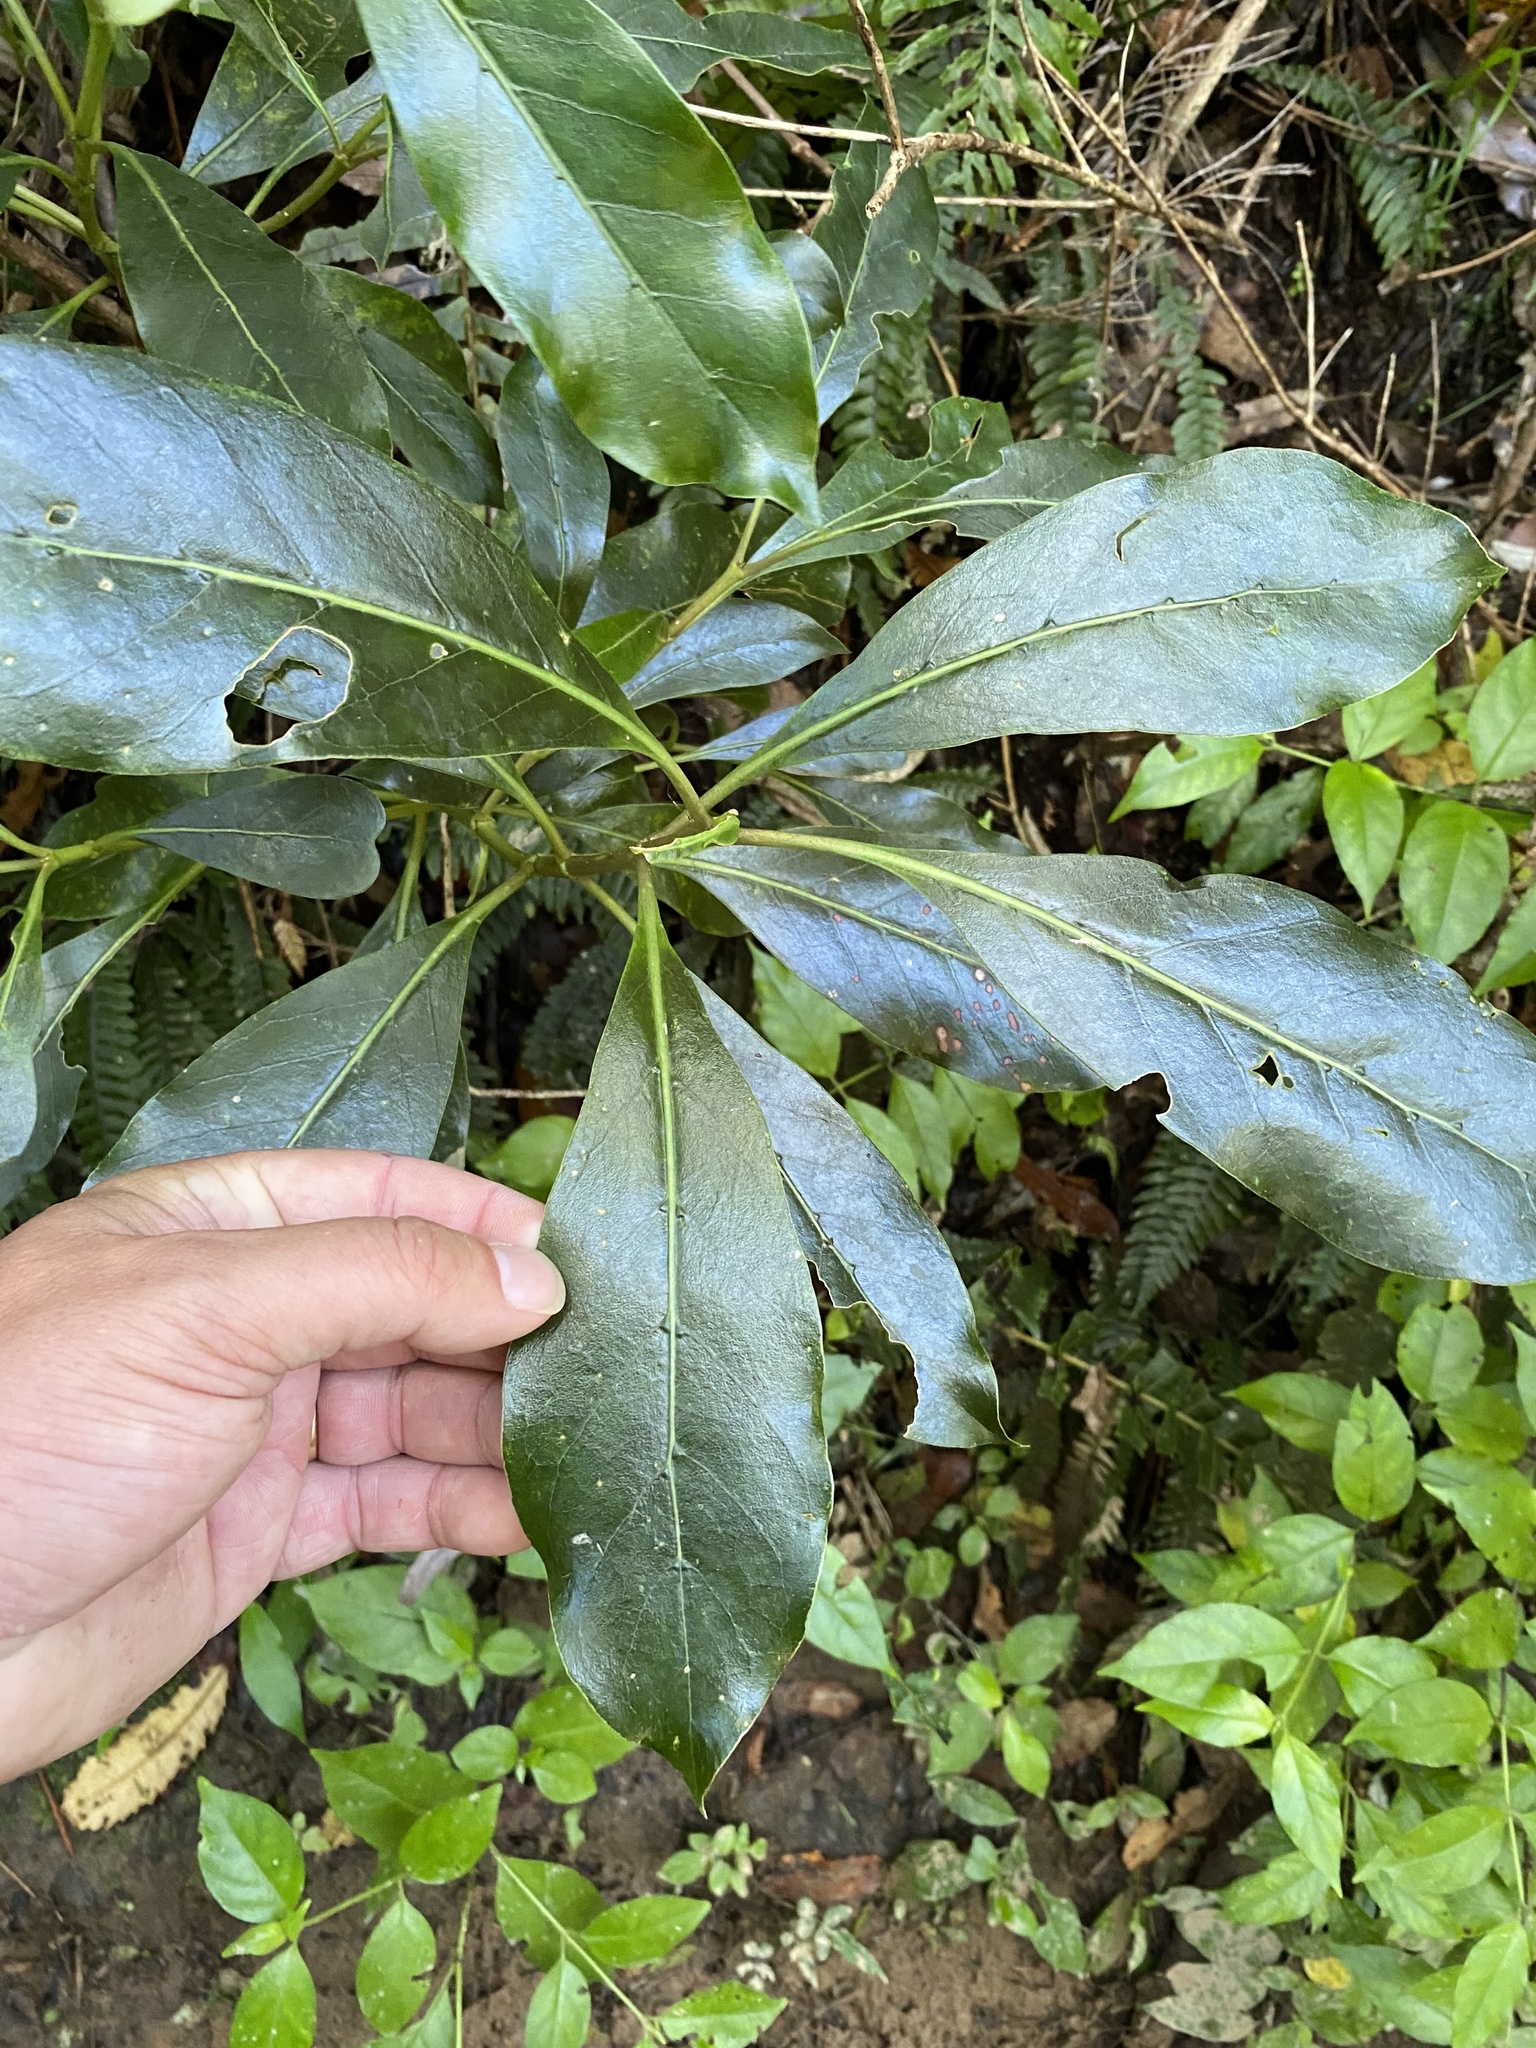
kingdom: Plantae
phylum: Tracheophyta
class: Magnoliopsida
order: Gentianales
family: Rubiaceae
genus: Coprosma
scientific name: Coprosma lucida
